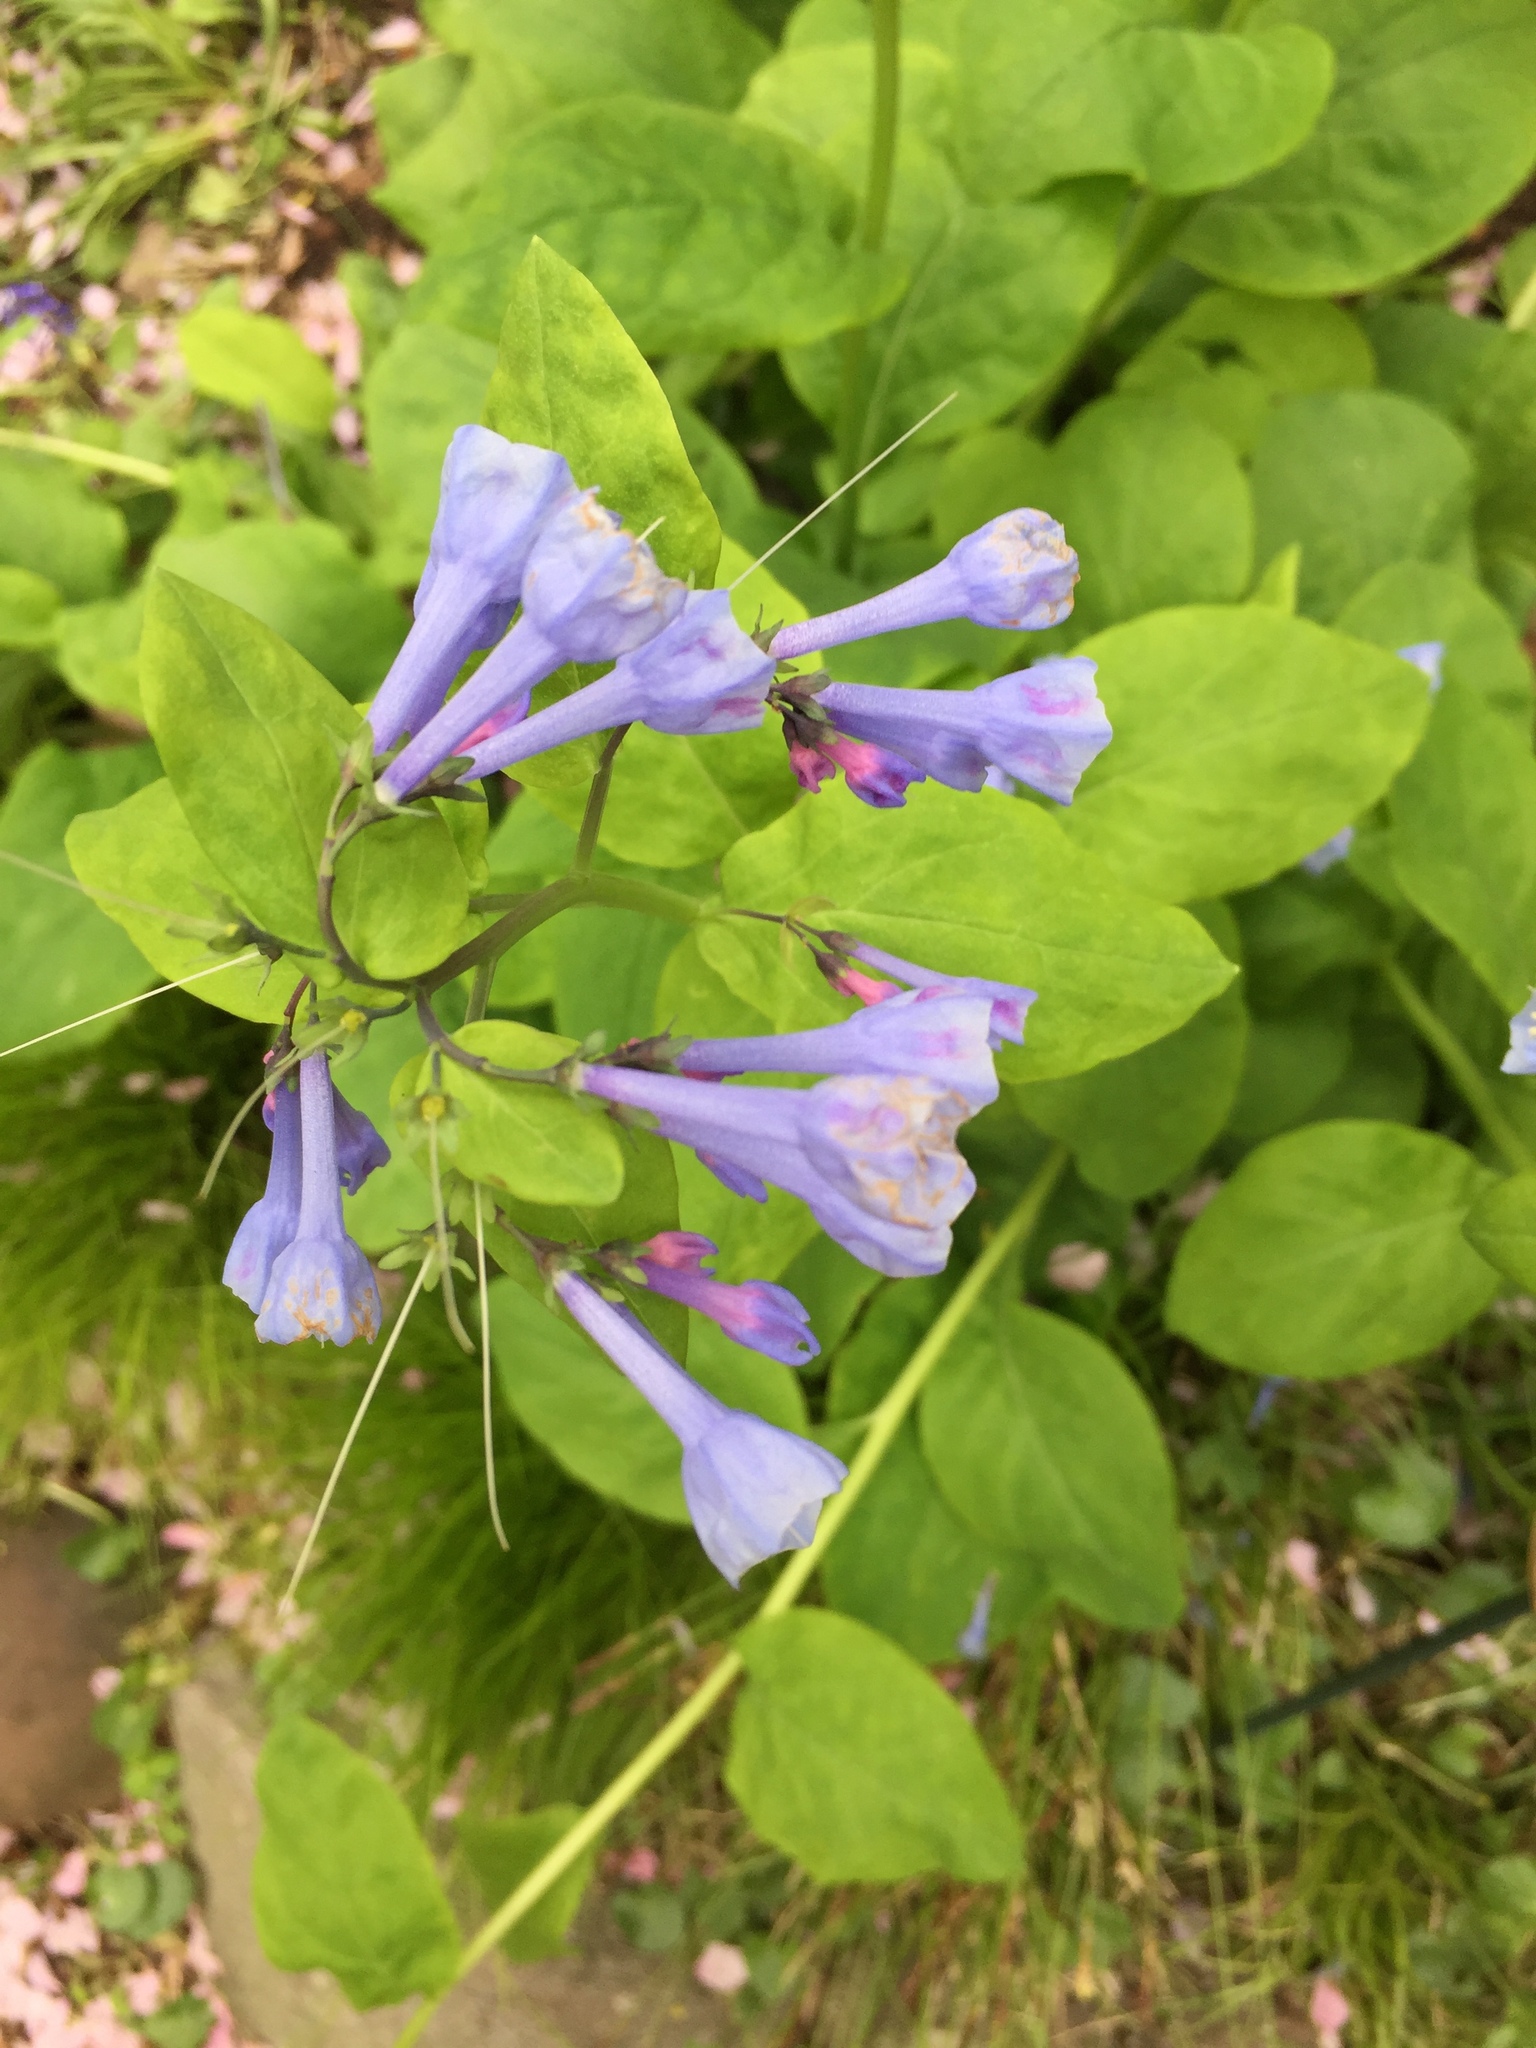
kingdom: Plantae
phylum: Tracheophyta
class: Magnoliopsida
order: Boraginales
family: Boraginaceae
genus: Mertensia
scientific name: Mertensia virginica
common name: Virginia bluebells
